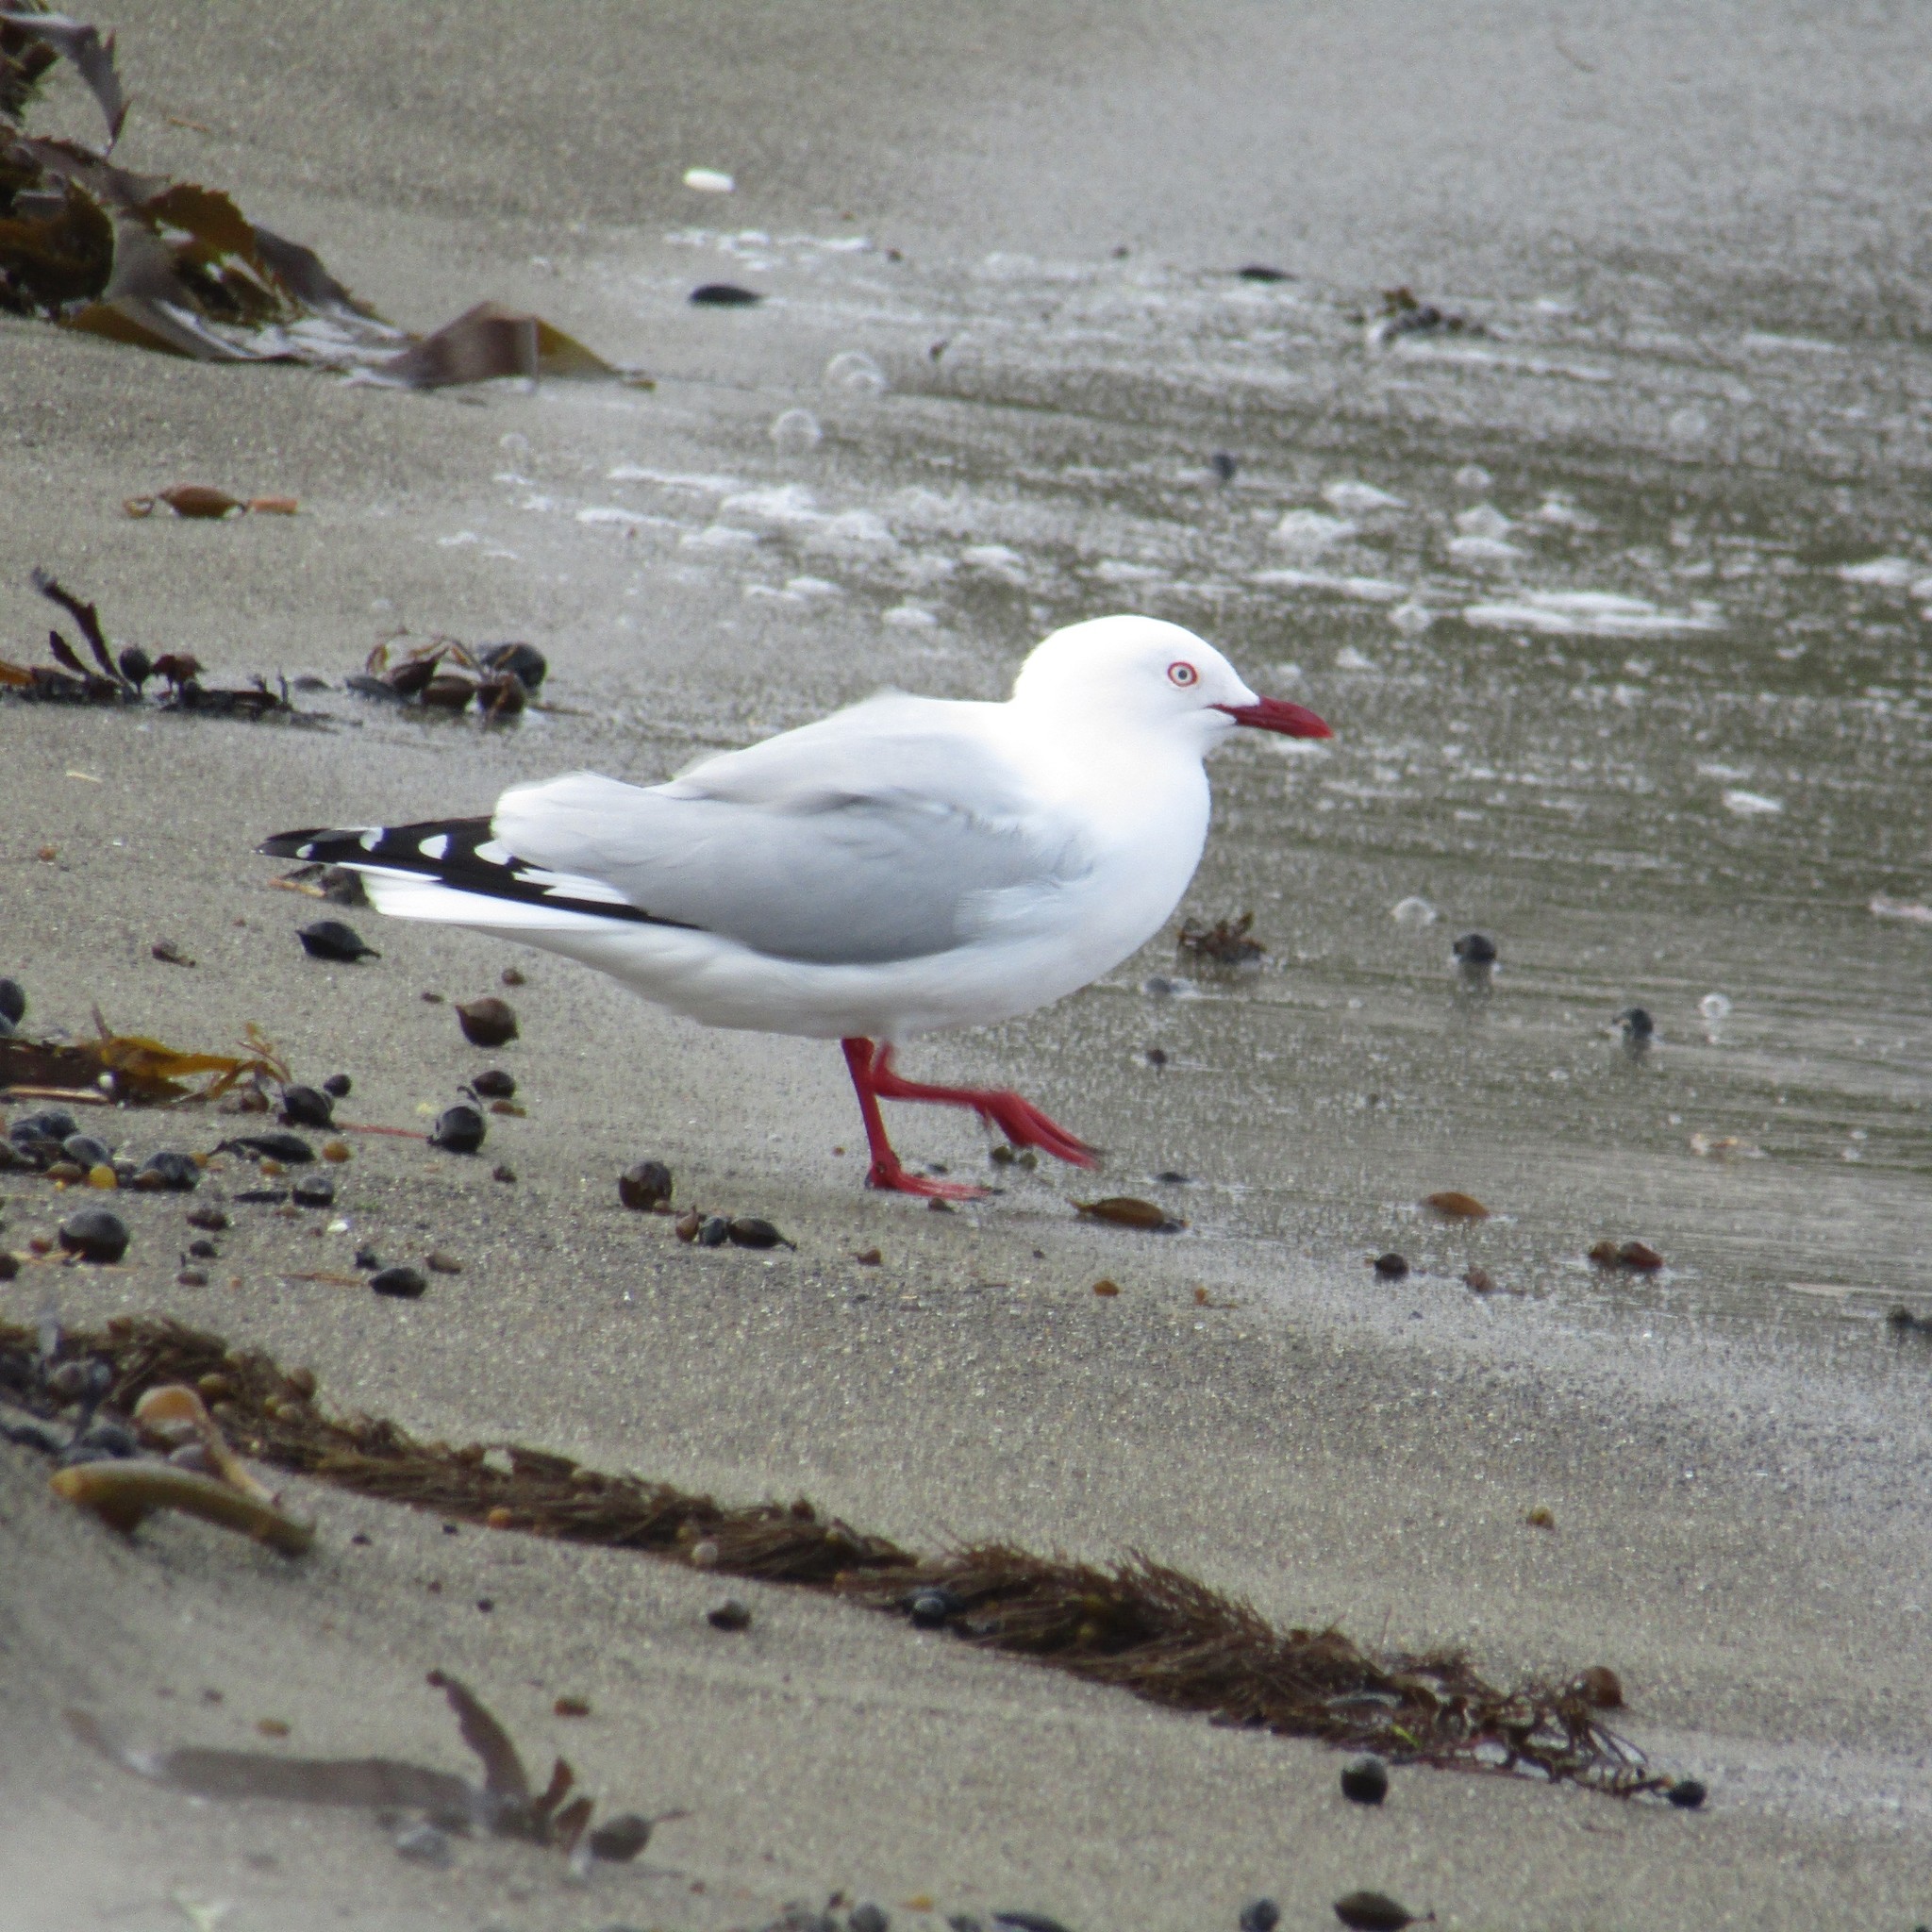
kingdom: Animalia
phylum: Chordata
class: Aves
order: Charadriiformes
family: Laridae
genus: Chroicocephalus
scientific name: Chroicocephalus novaehollandiae
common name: Silver gull
